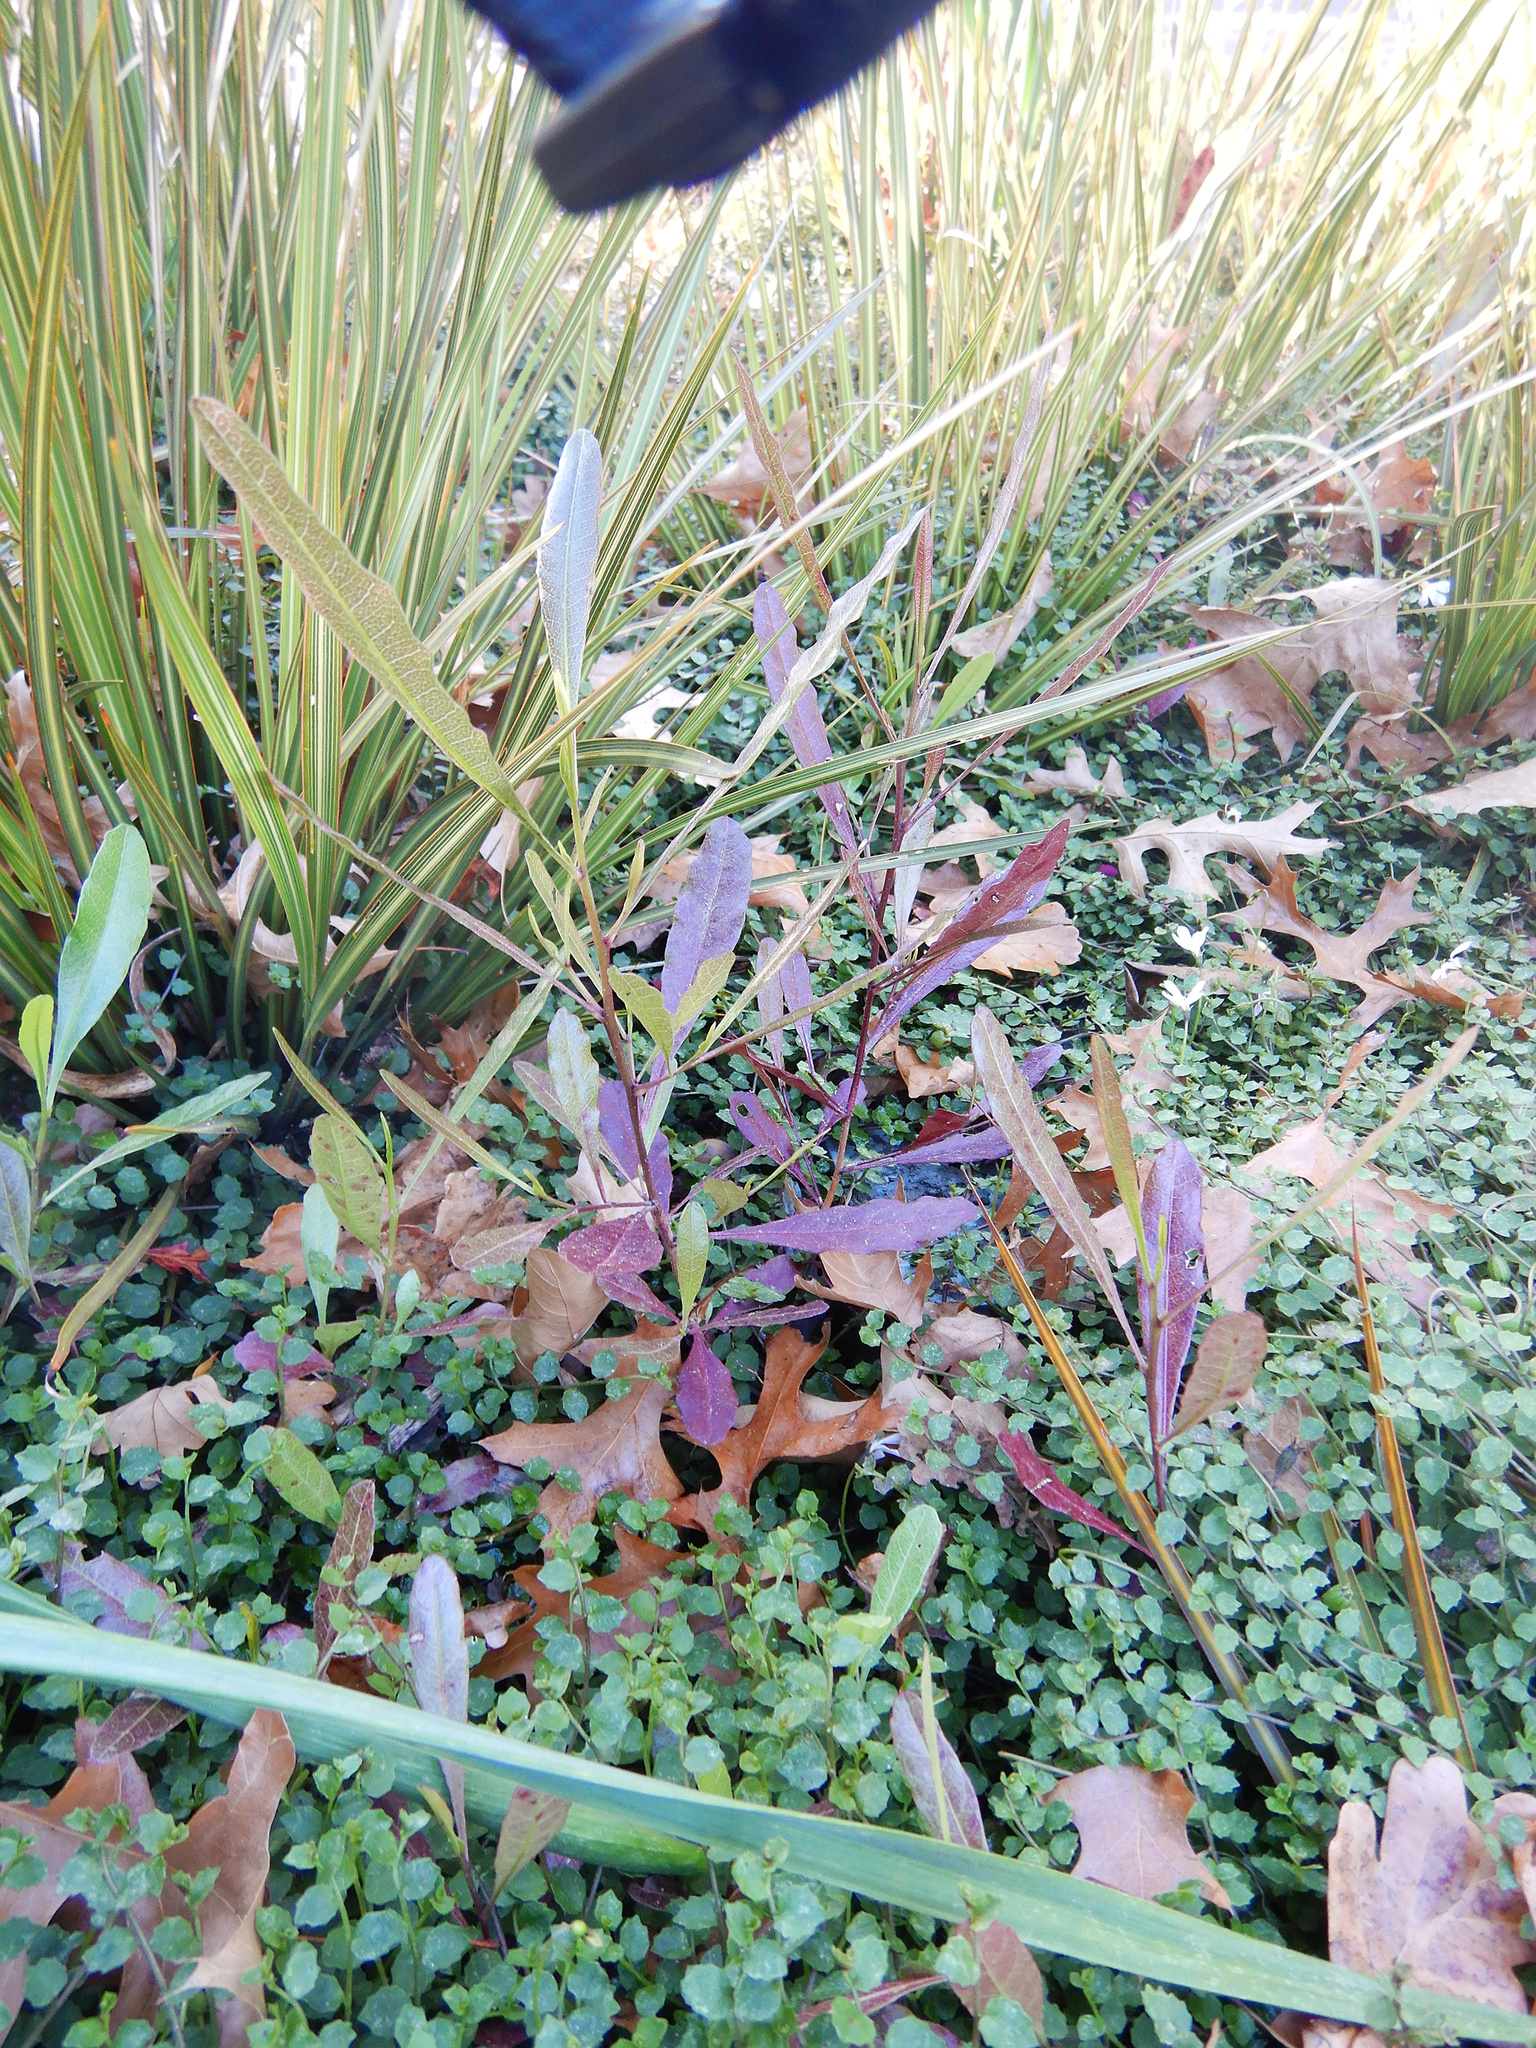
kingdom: Plantae
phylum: Tracheophyta
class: Magnoliopsida
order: Sapindales
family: Sapindaceae
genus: Dodonaea
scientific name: Dodonaea viscosa
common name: Hopbush
